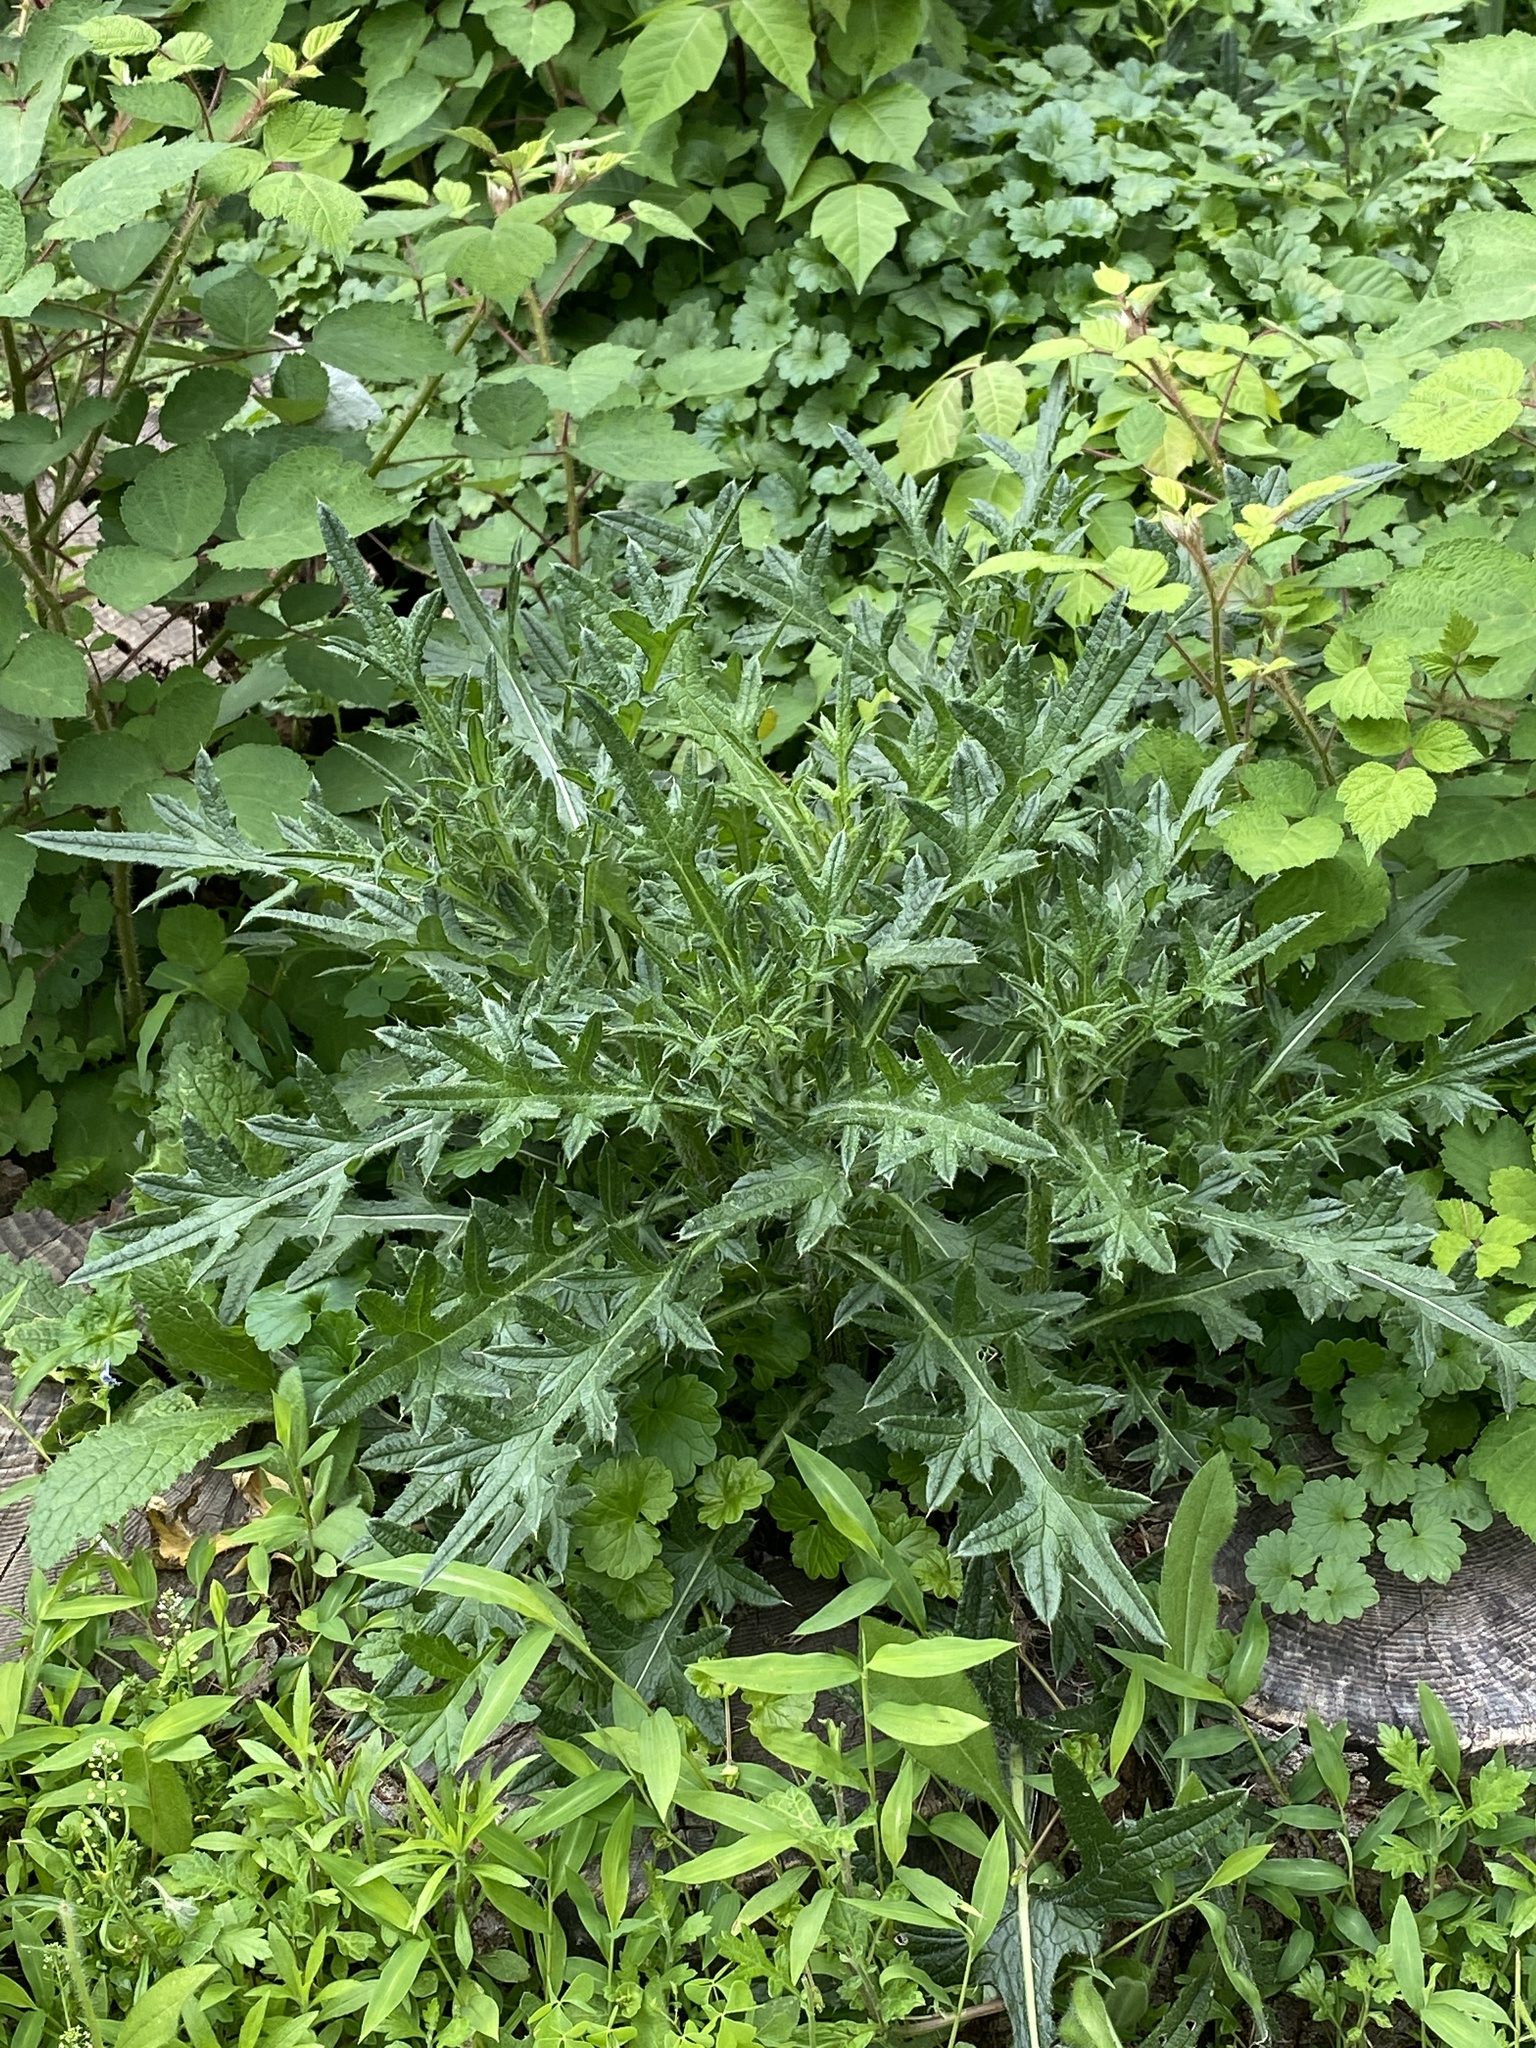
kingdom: Plantae
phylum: Tracheophyta
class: Magnoliopsida
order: Asterales
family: Asteraceae
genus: Cirsium
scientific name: Cirsium vulgare
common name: Bull thistle
